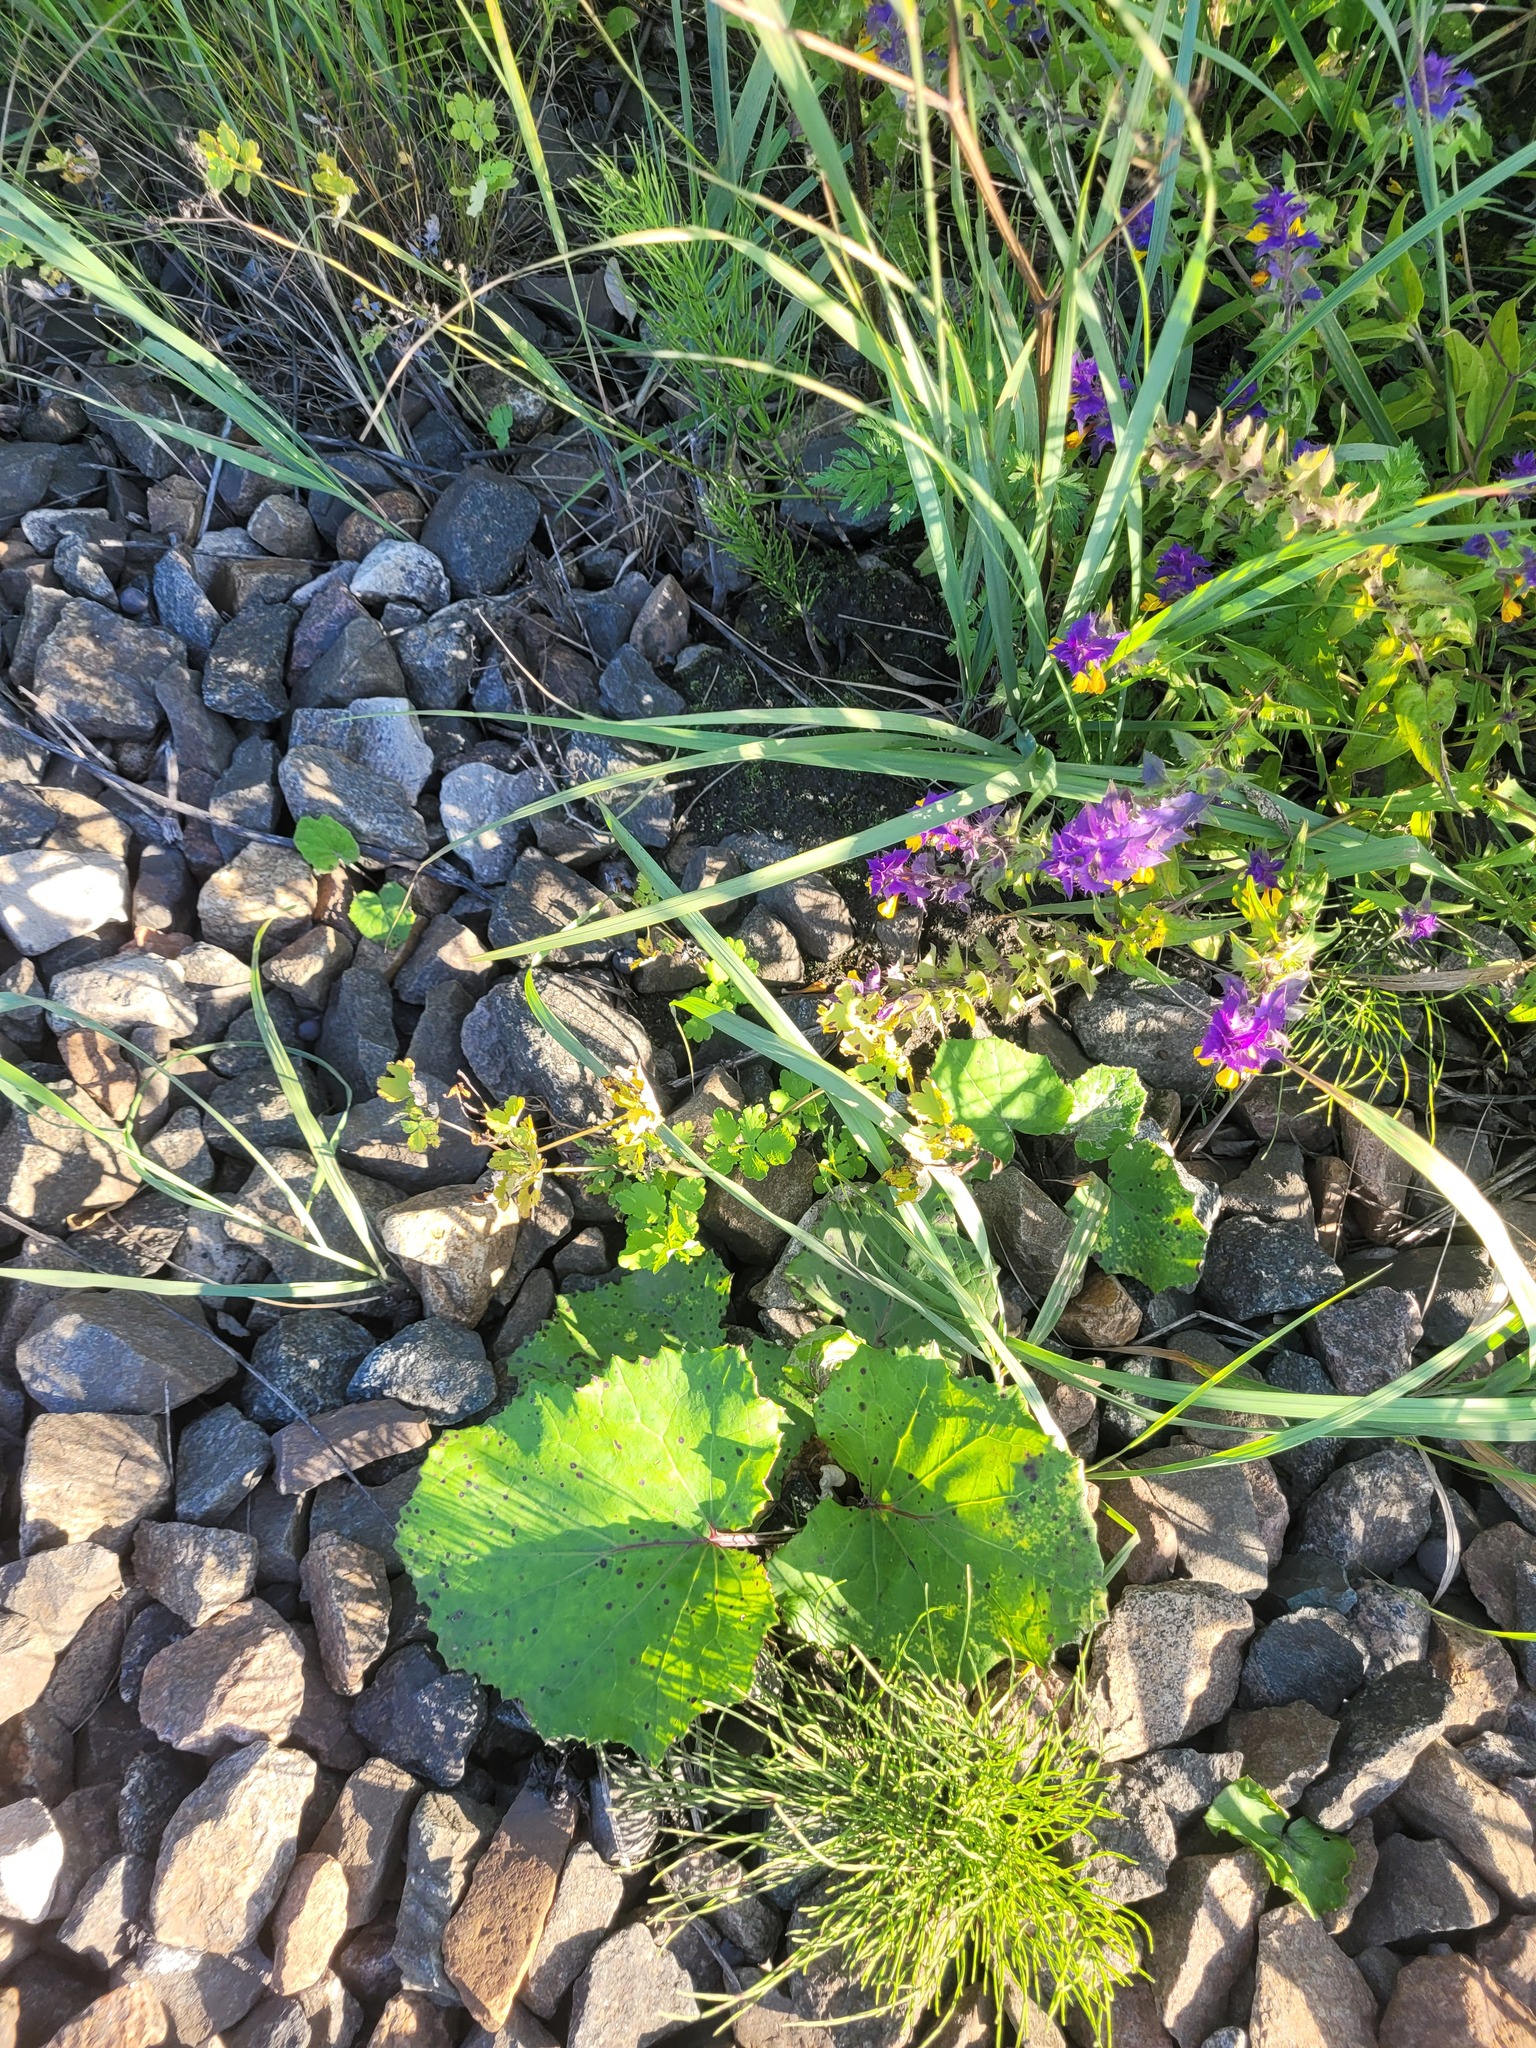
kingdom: Plantae
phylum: Tracheophyta
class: Magnoliopsida
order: Ranunculales
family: Papaveraceae
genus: Chelidonium
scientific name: Chelidonium majus
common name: Greater celandine
